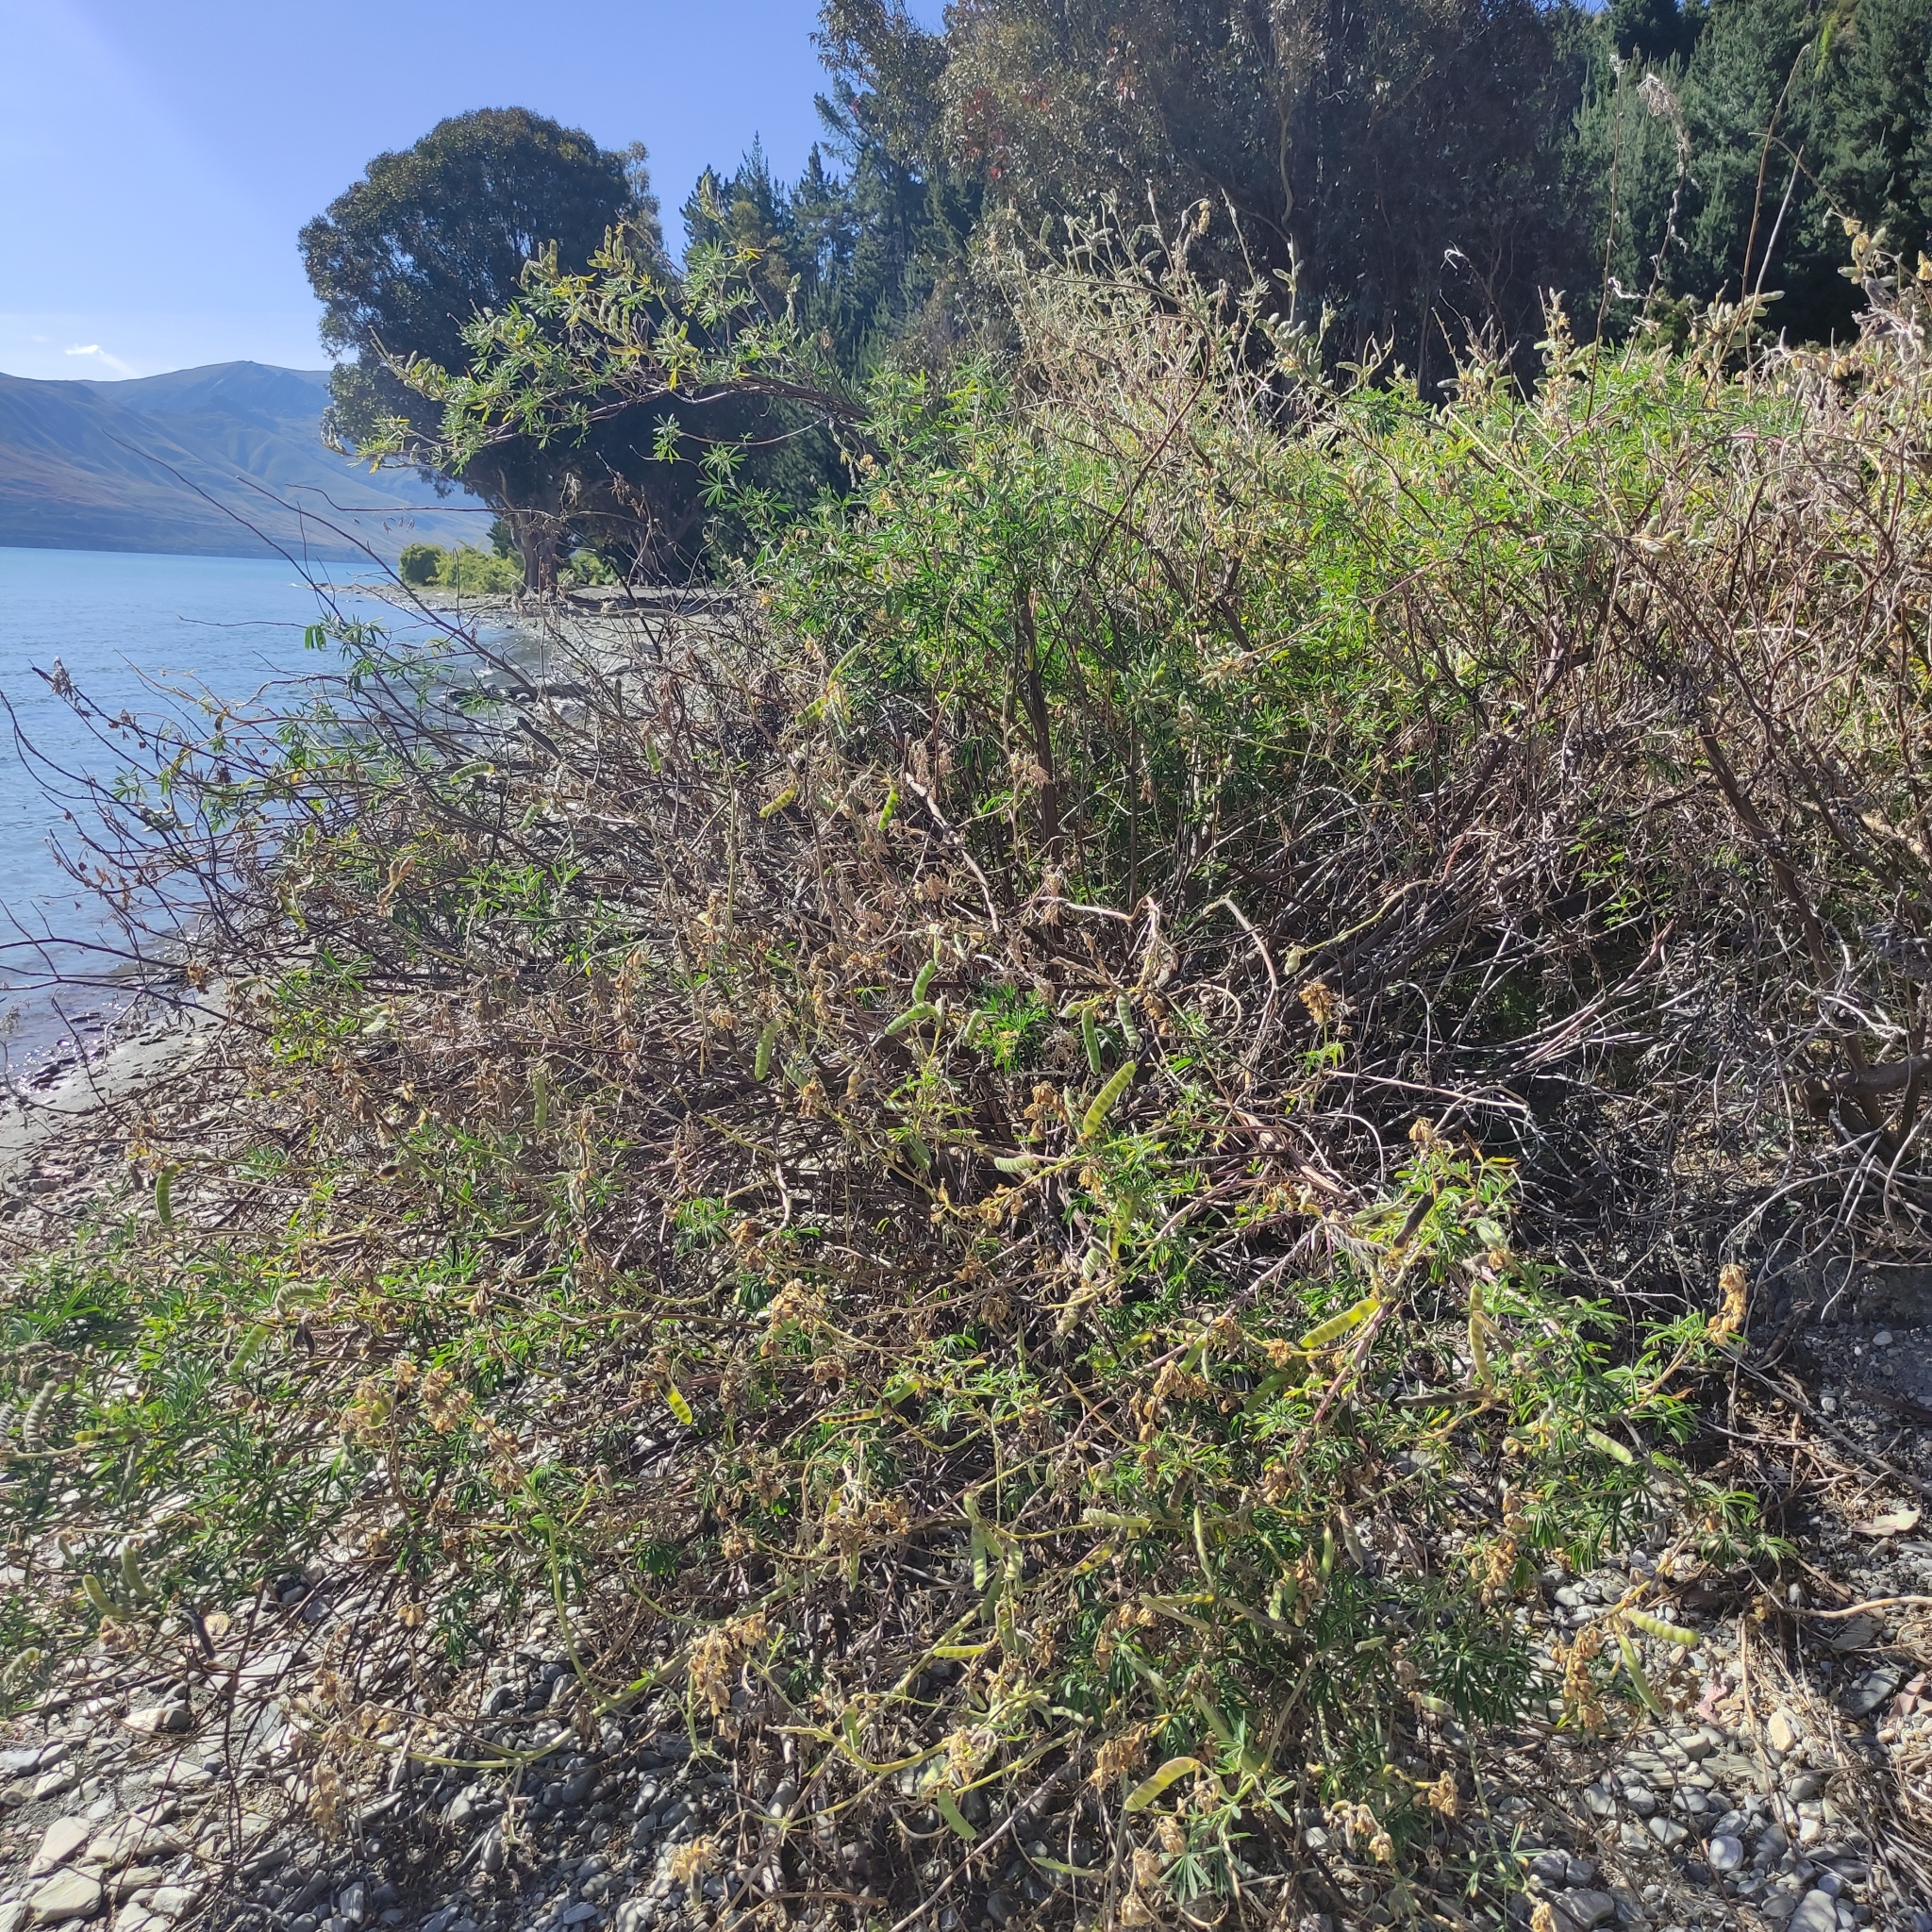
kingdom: Plantae
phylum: Tracheophyta
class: Magnoliopsida
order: Fabales
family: Fabaceae
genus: Lupinus
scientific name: Lupinus arboreus
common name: Yellow bush lupine
